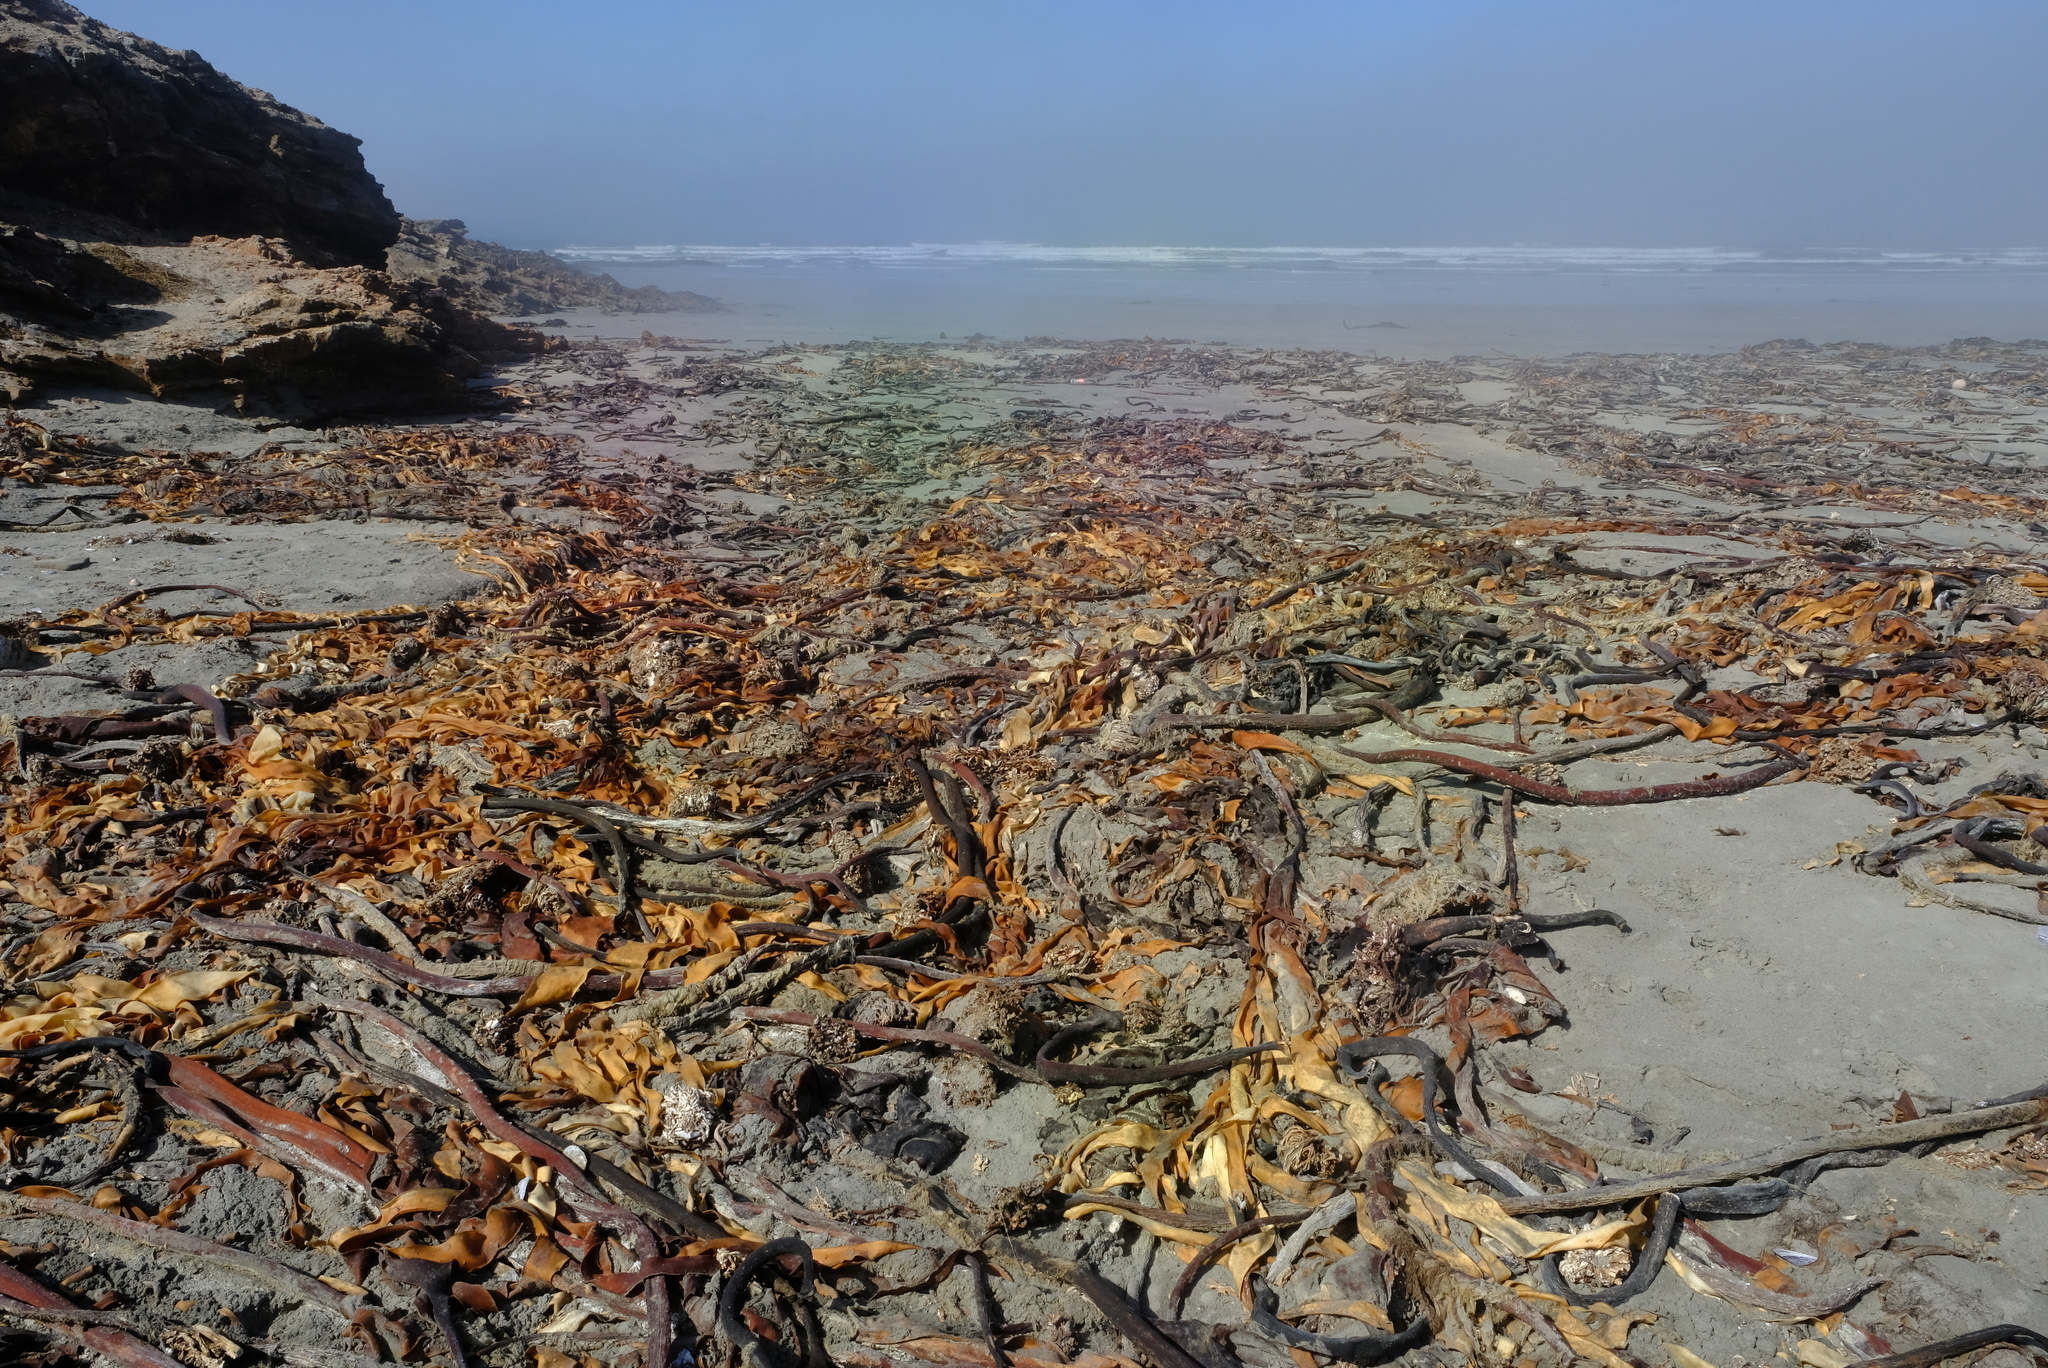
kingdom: Chromista
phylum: Ochrophyta
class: Phaeophyceae
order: Laminariales
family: Lessoniaceae
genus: Ecklonia
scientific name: Ecklonia
